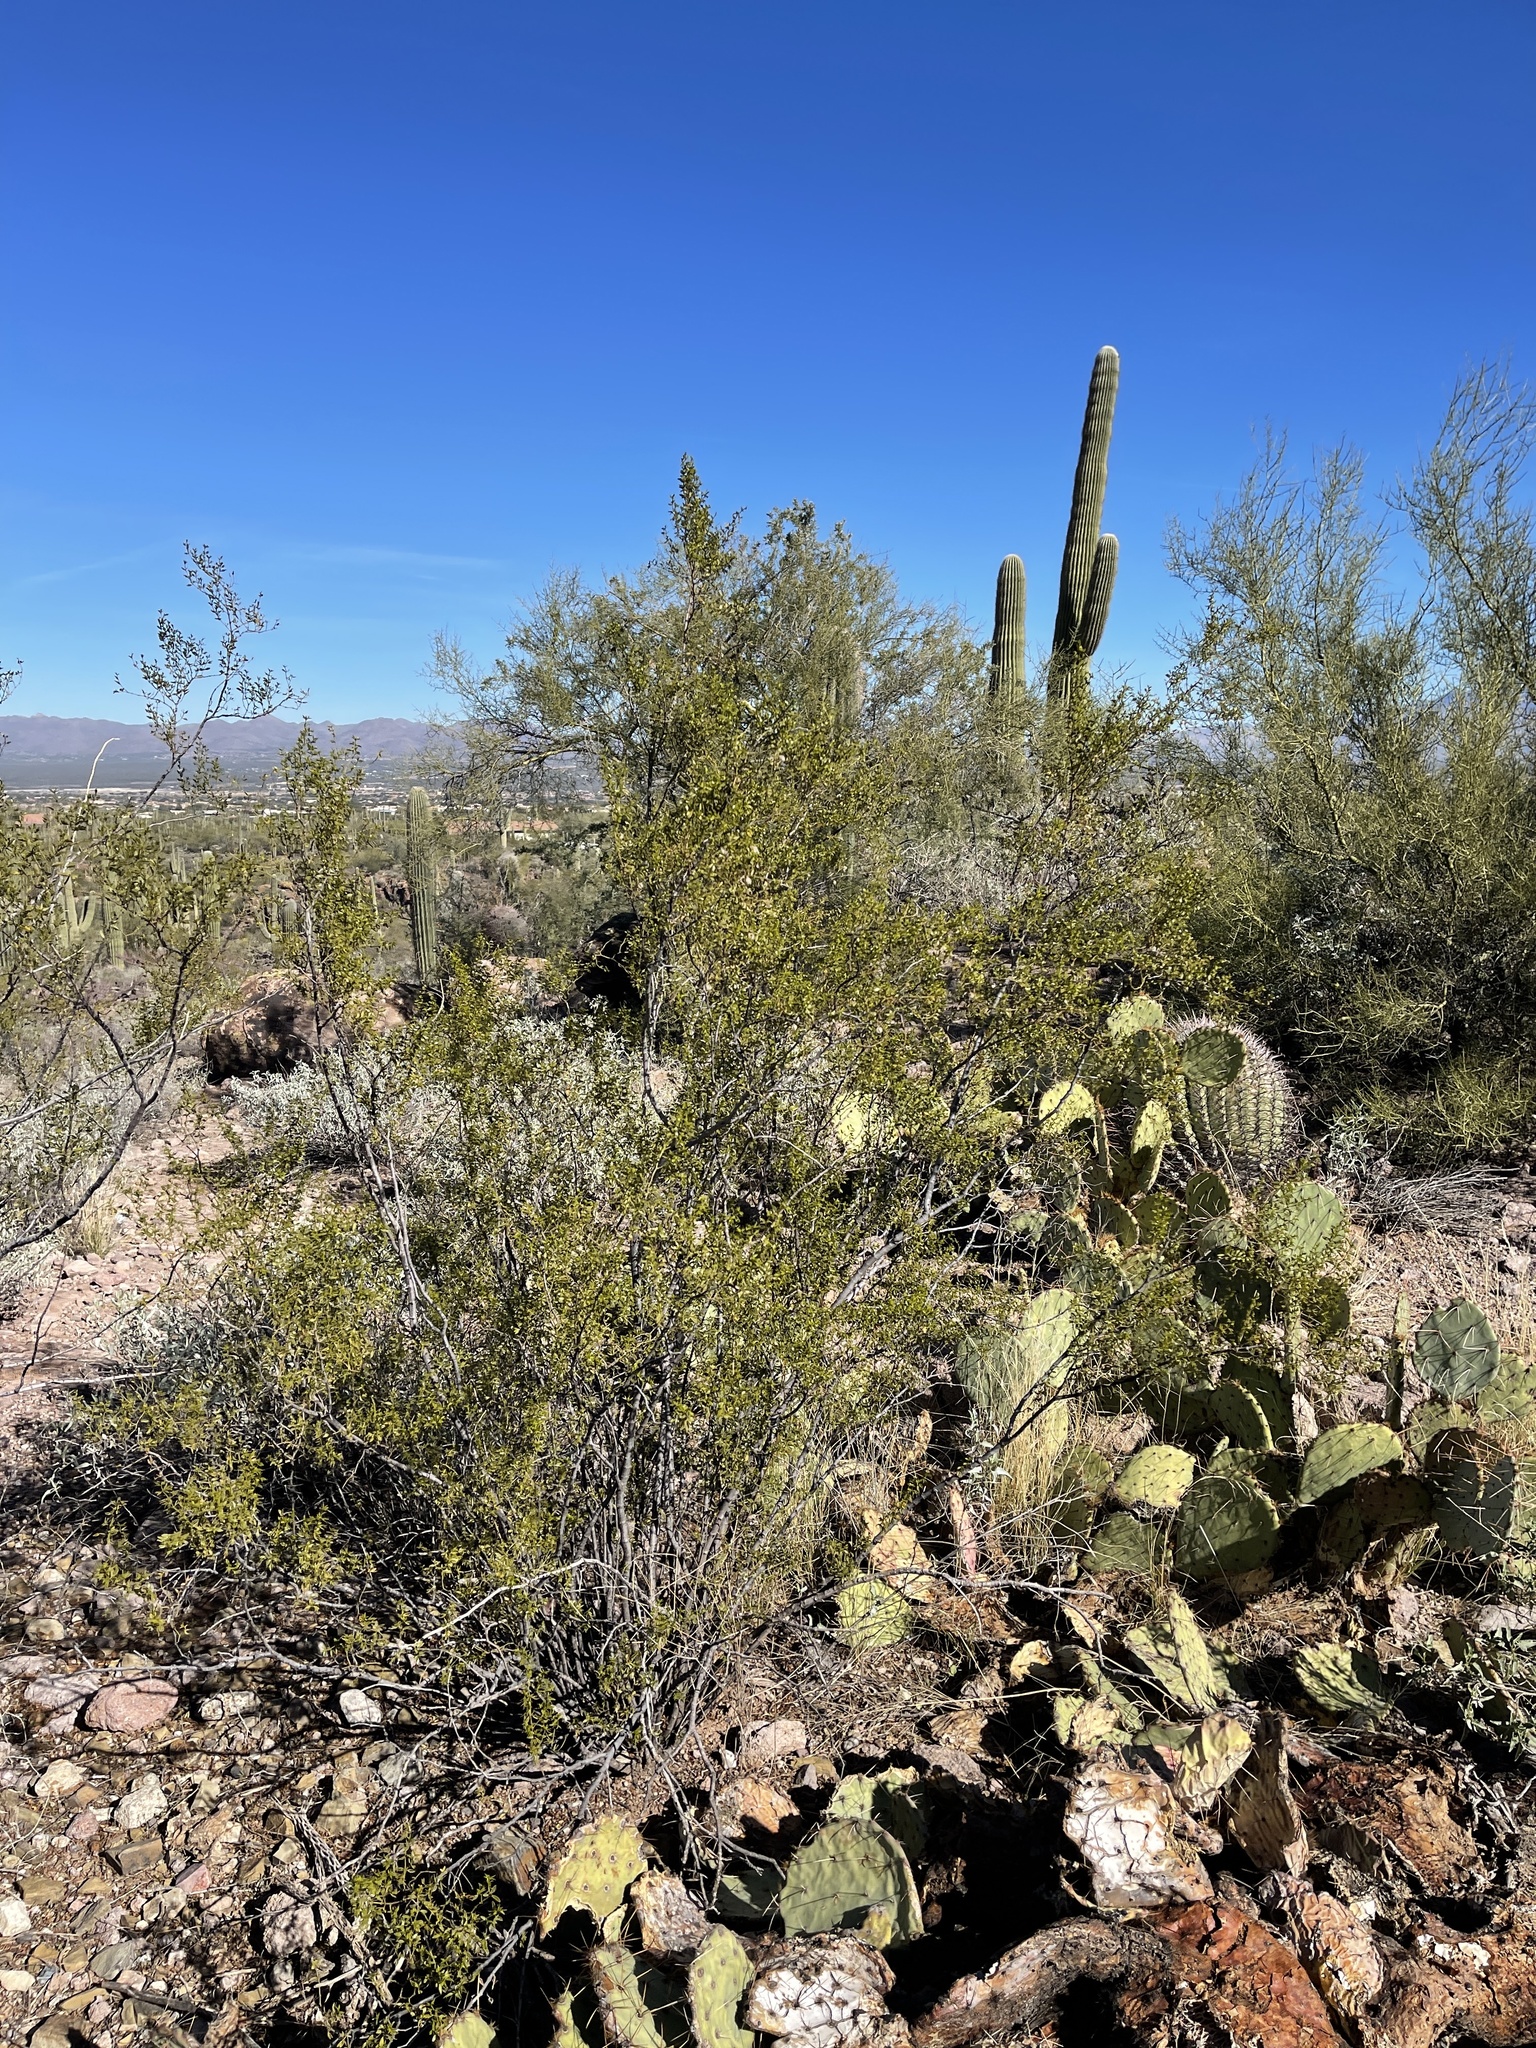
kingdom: Plantae
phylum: Tracheophyta
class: Magnoliopsida
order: Zygophyllales
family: Zygophyllaceae
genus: Larrea
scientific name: Larrea tridentata
